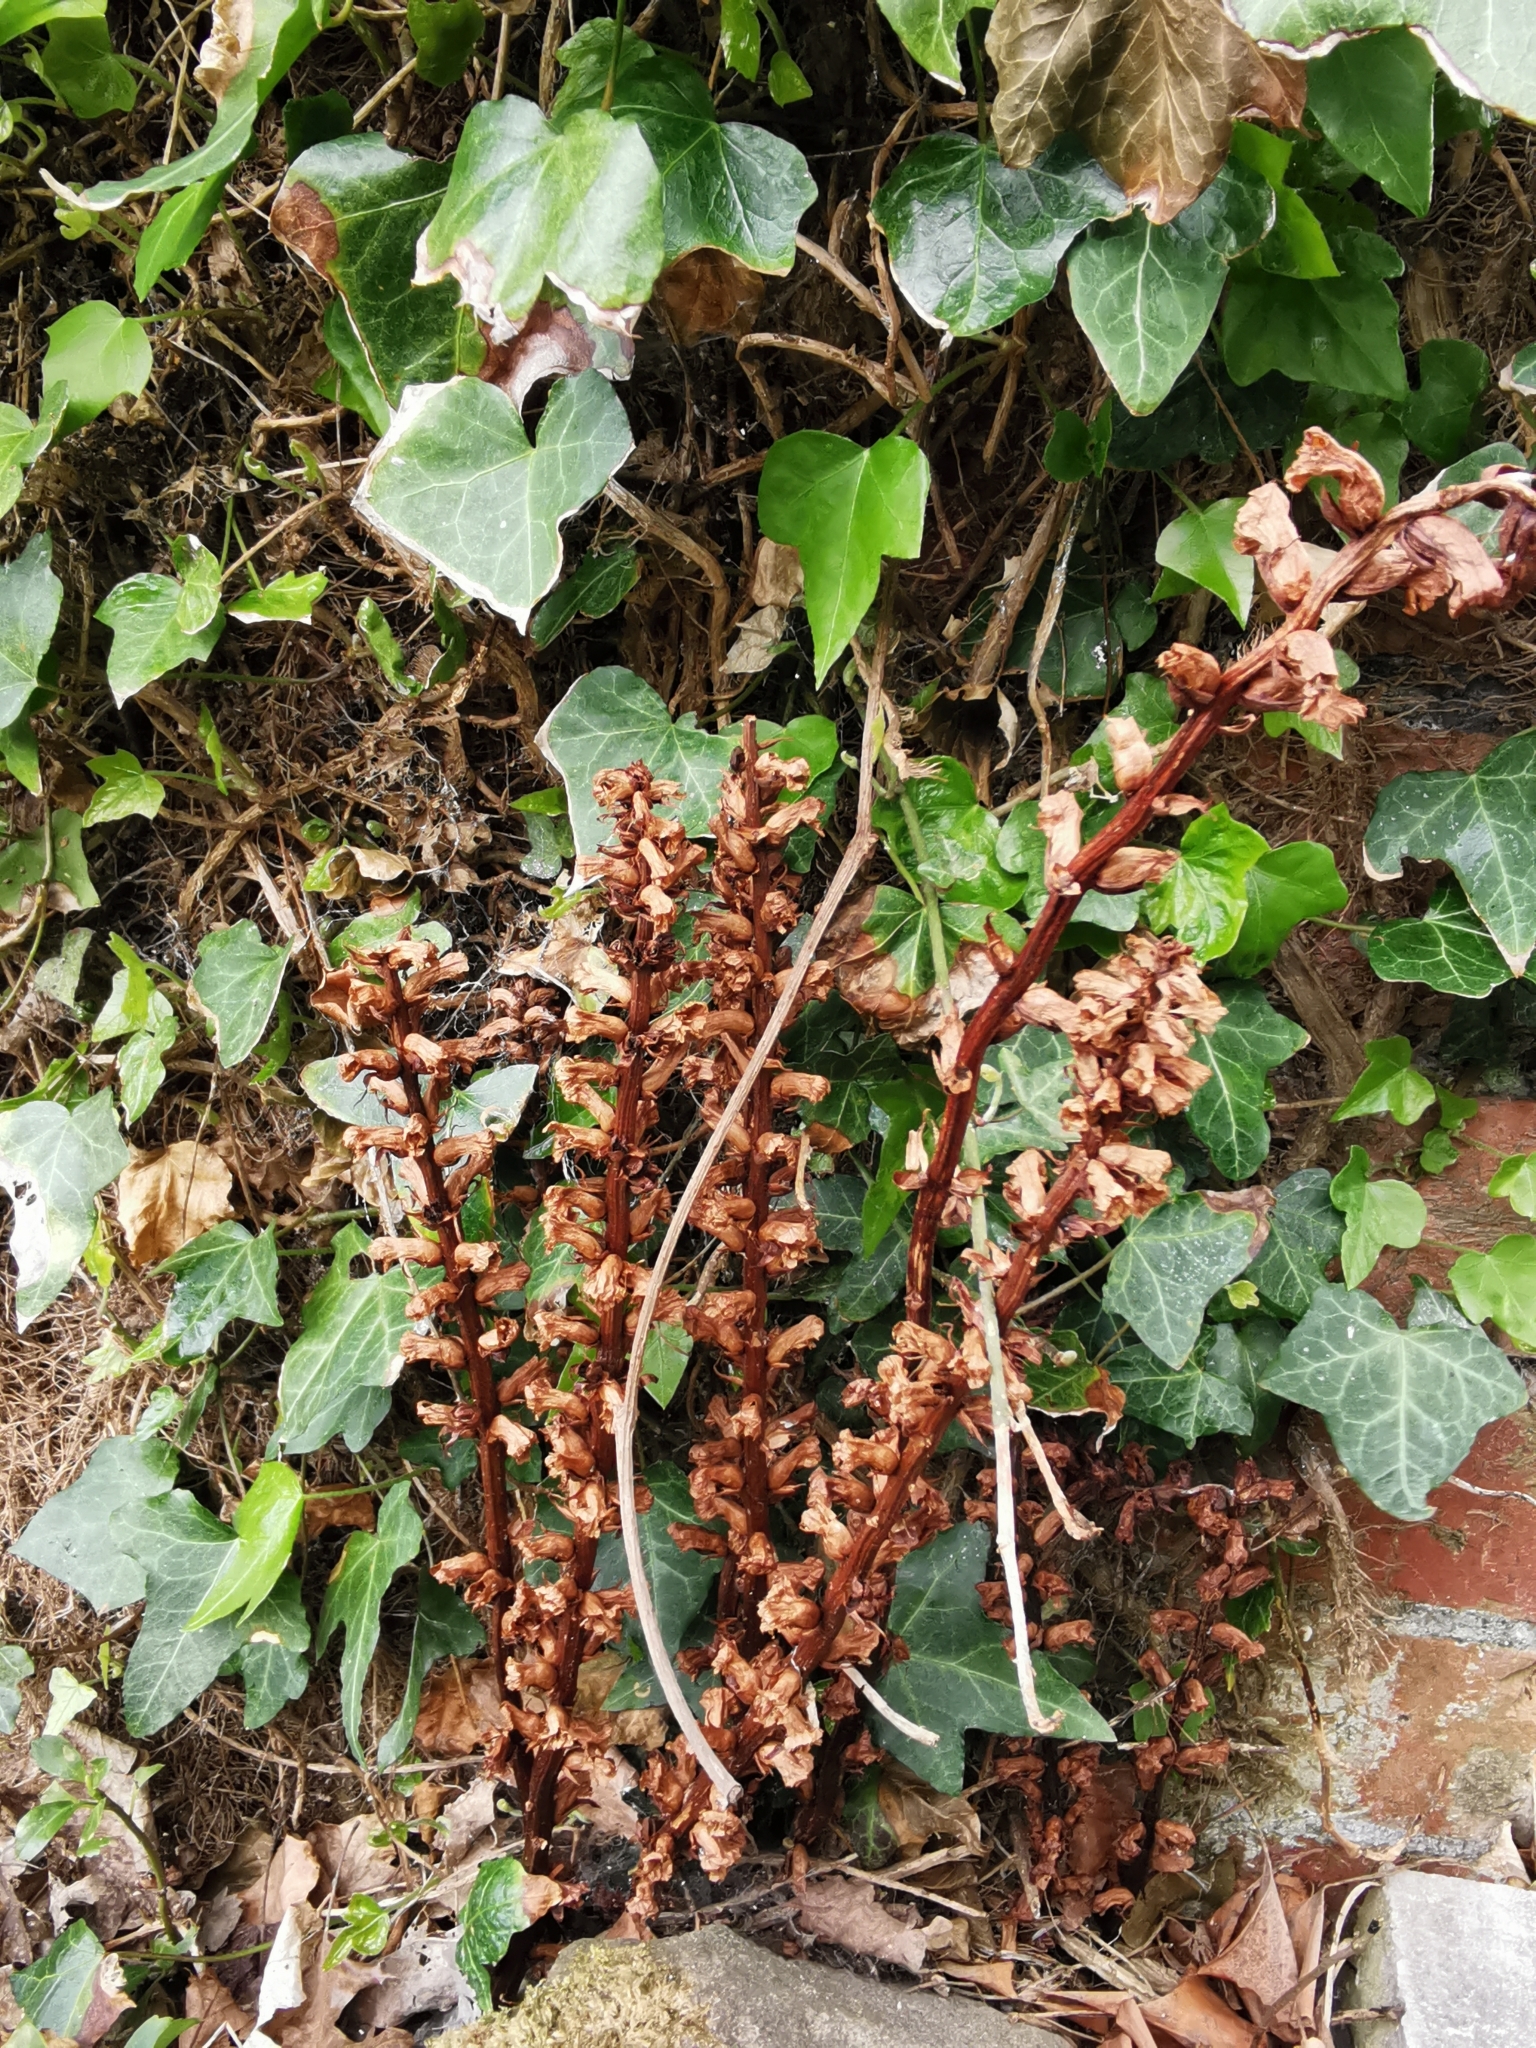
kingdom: Plantae
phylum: Tracheophyta
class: Magnoliopsida
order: Lamiales
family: Orobanchaceae
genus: Orobanche
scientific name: Orobanche hederae
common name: Ivy broomrape
